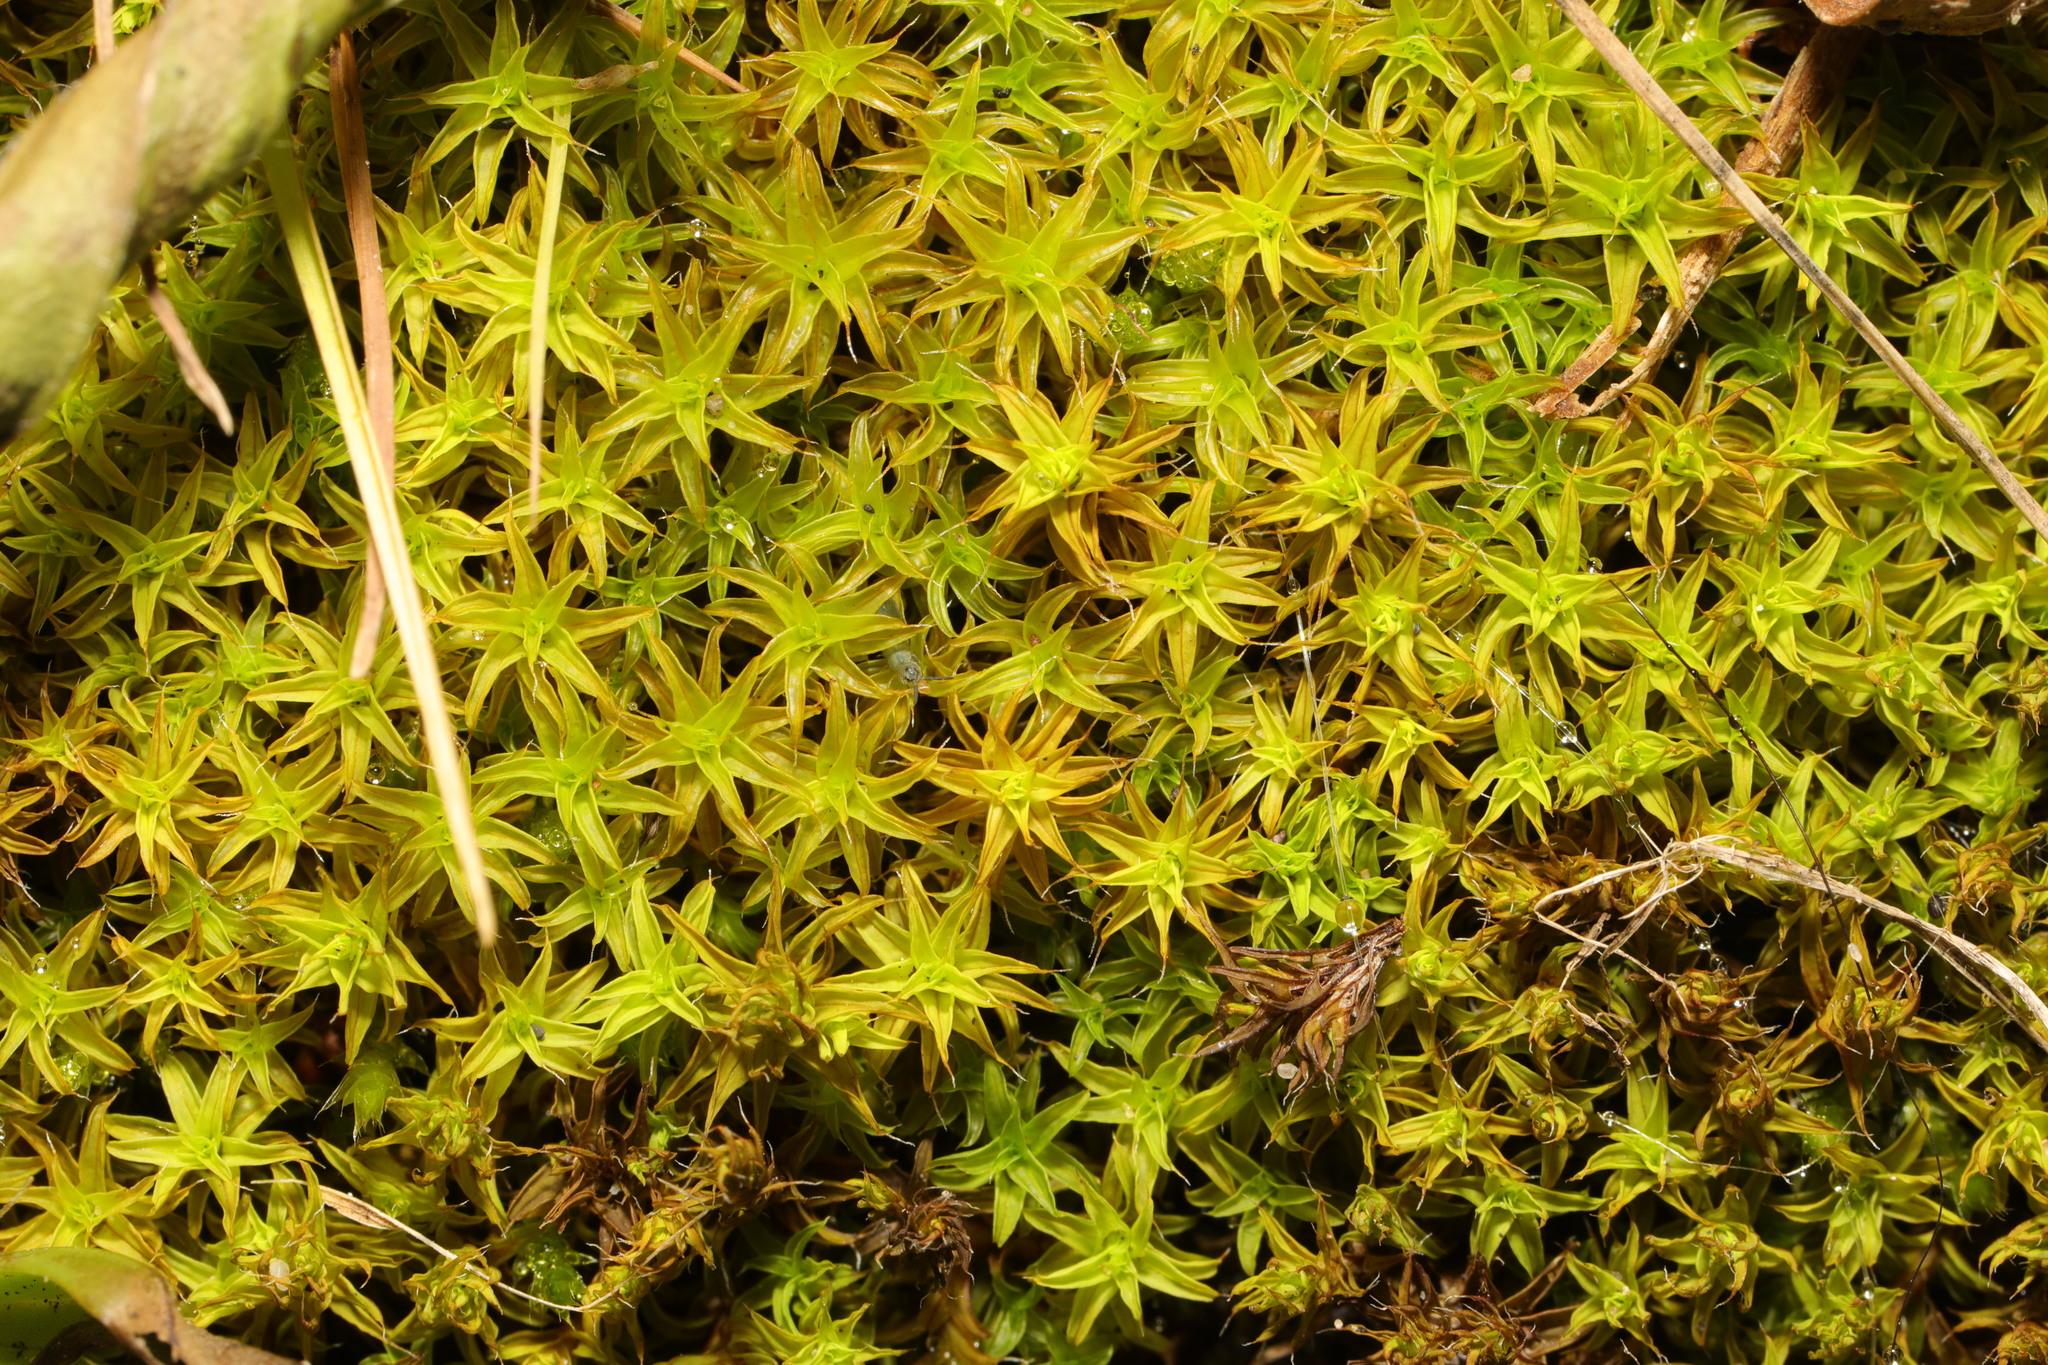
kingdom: Plantae
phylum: Bryophyta
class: Bryopsida
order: Pottiales
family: Pottiaceae
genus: Syntrichia
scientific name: Syntrichia ruralis
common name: Sidewalk screw moss
